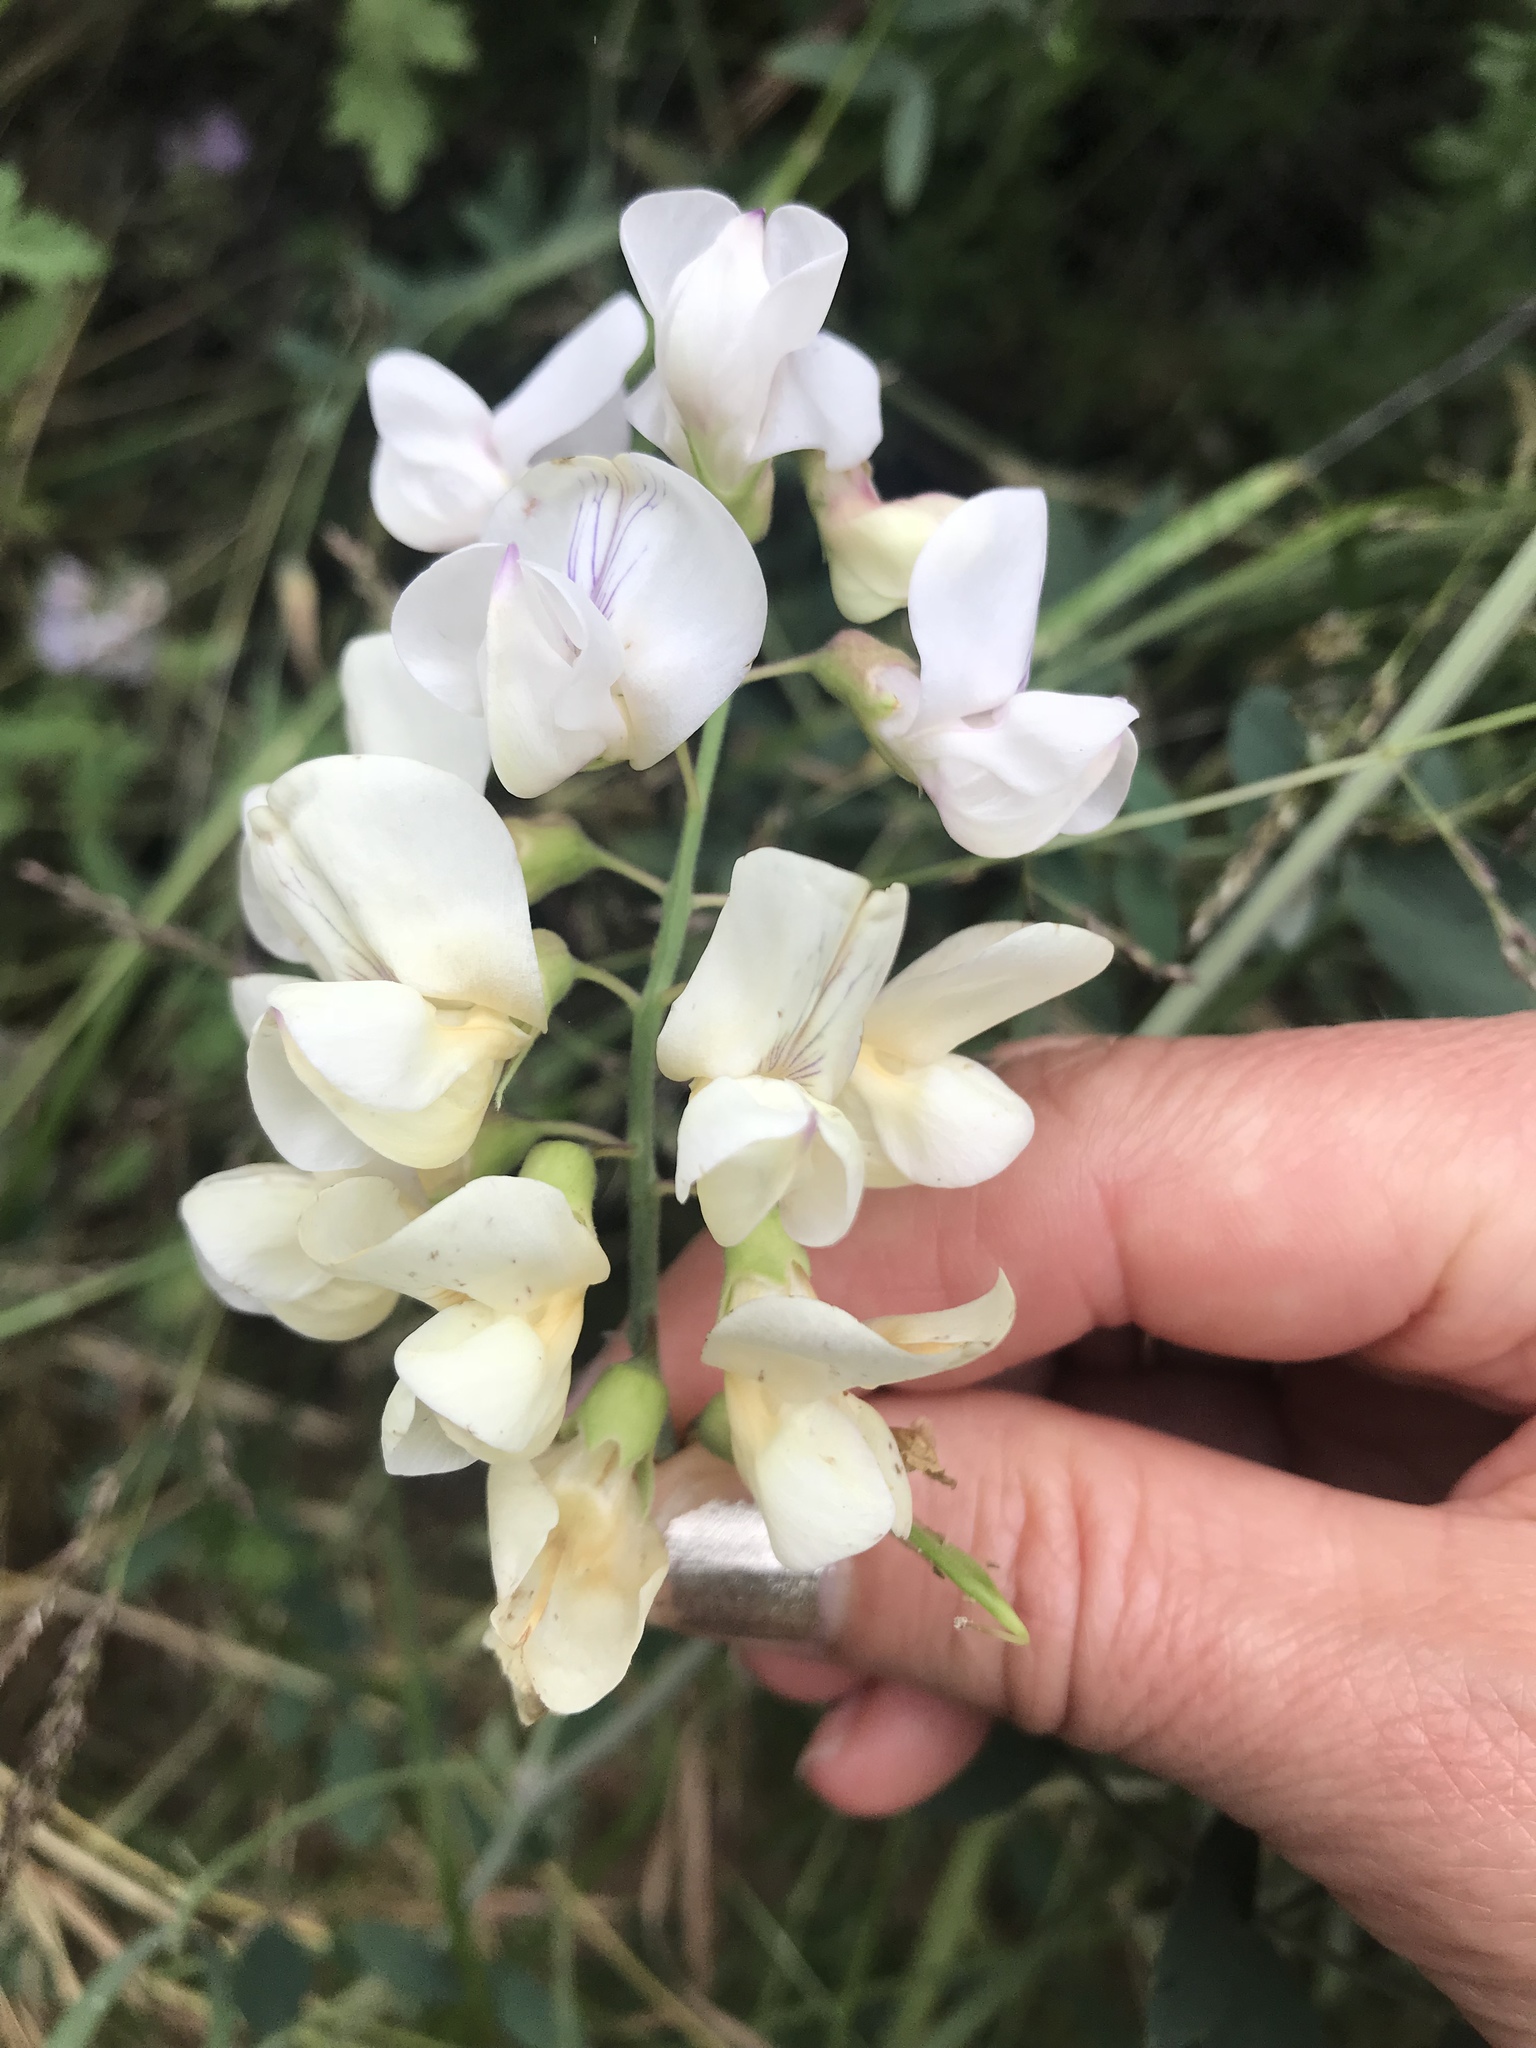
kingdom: Plantae
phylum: Tracheophyta
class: Magnoliopsida
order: Fabales
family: Fabaceae
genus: Lathyrus
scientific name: Lathyrus vestitus
